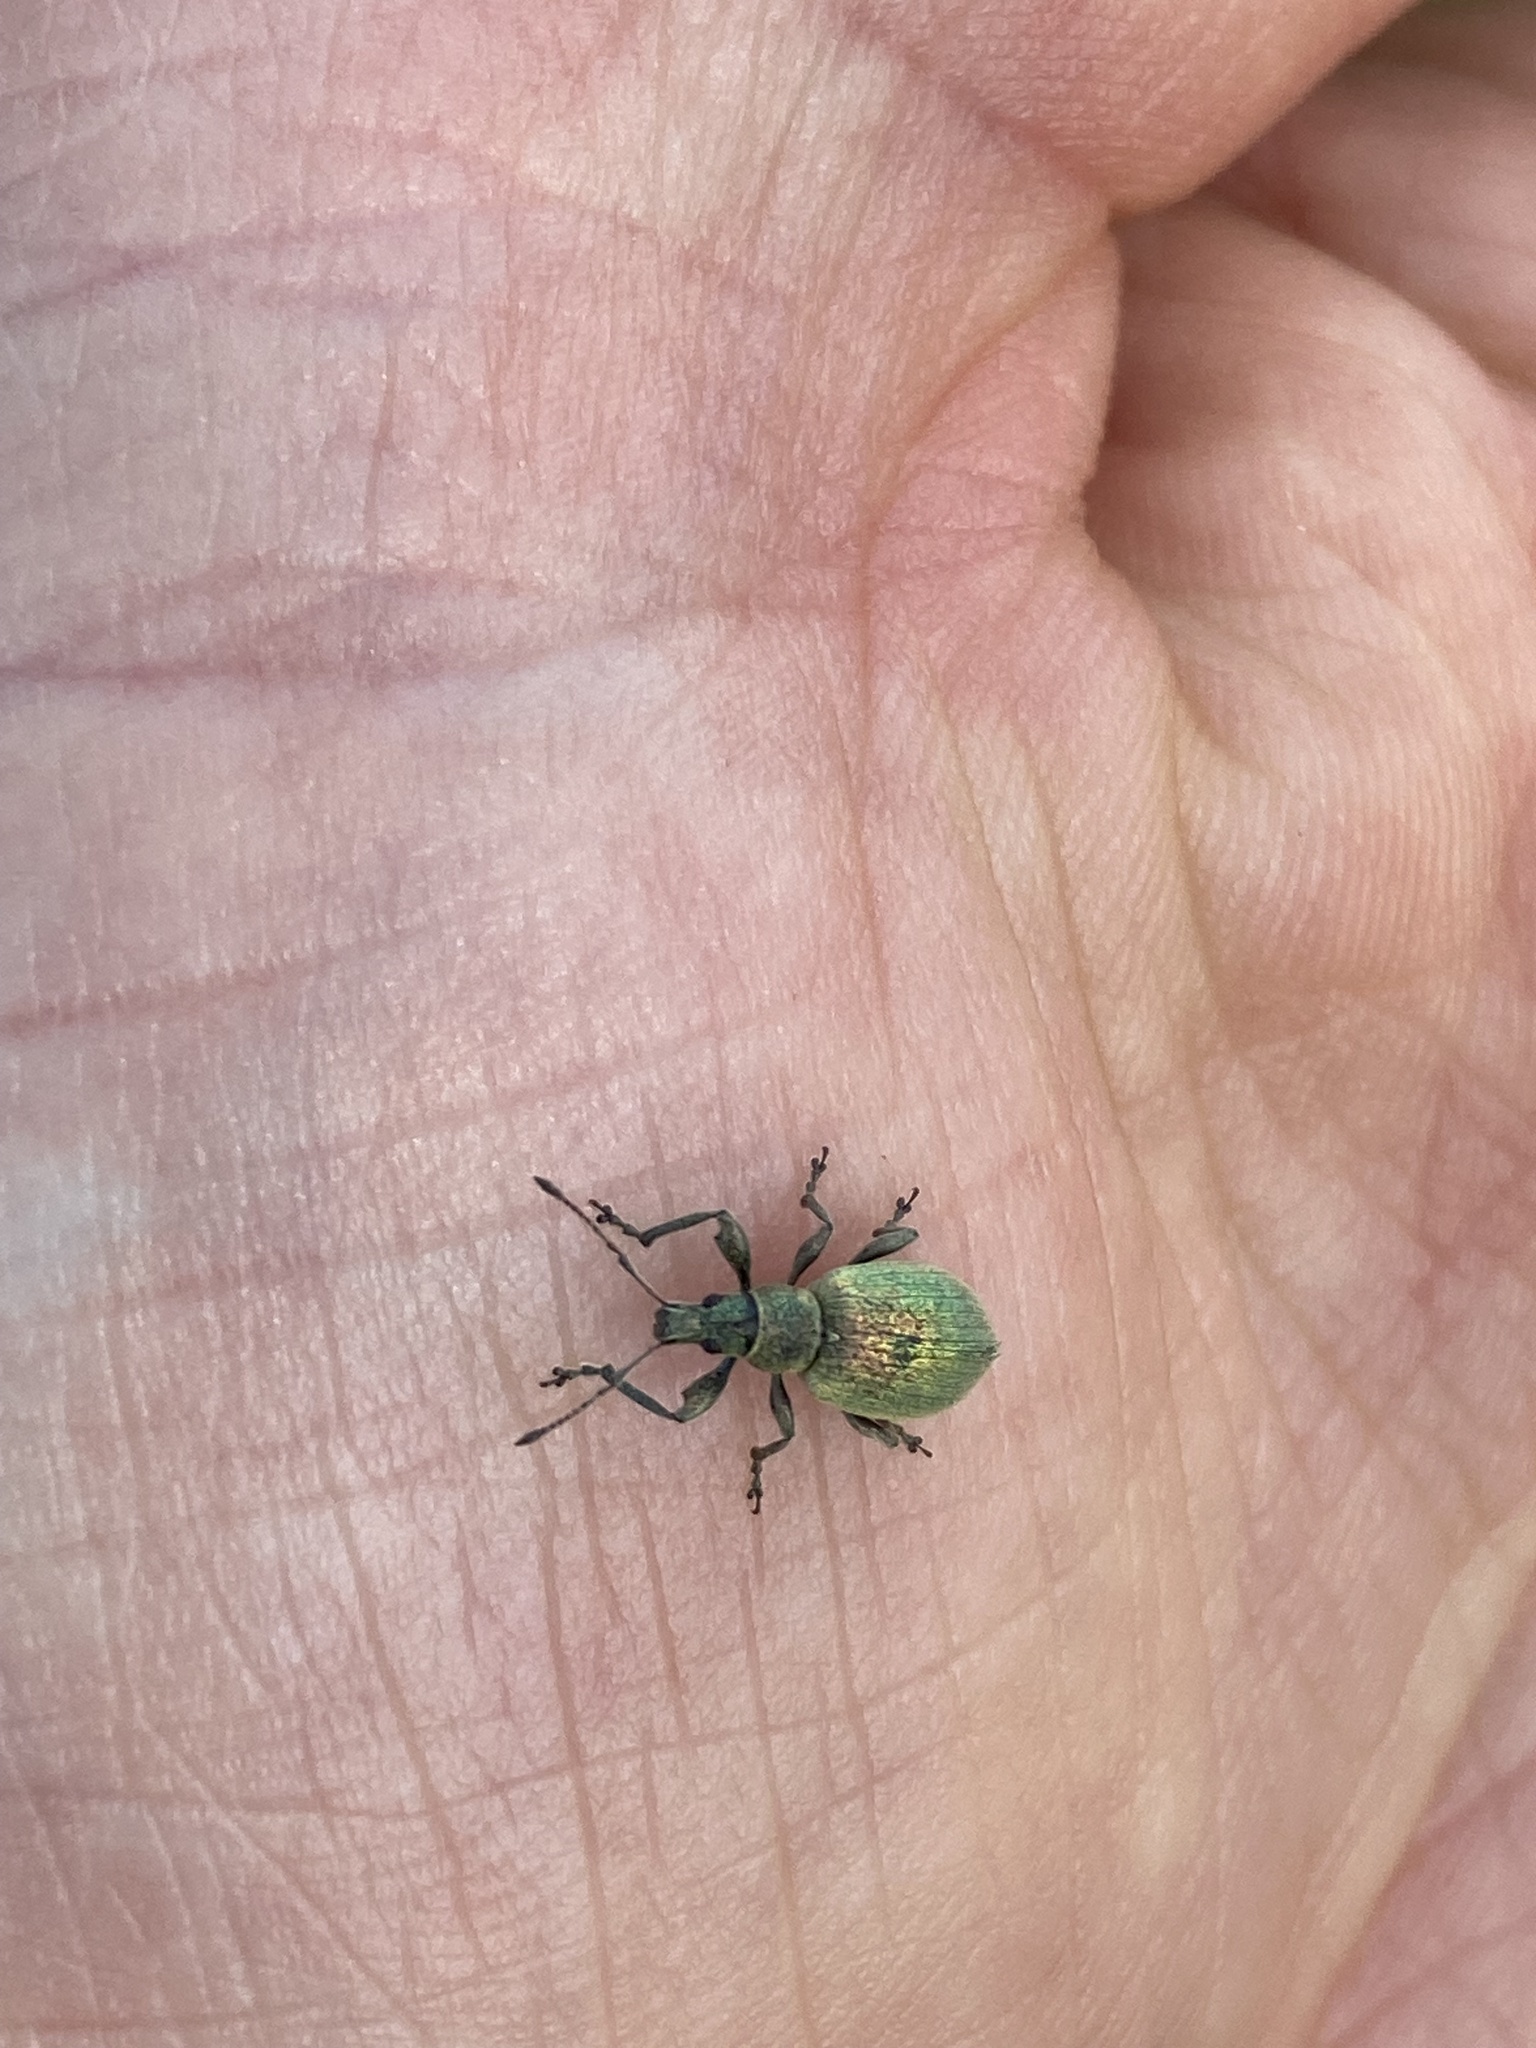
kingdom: Animalia
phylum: Arthropoda
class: Insecta
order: Coleoptera
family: Curculionidae
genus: Phyllobius
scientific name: Phyllobius pomaceus
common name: Green nettle weevil
